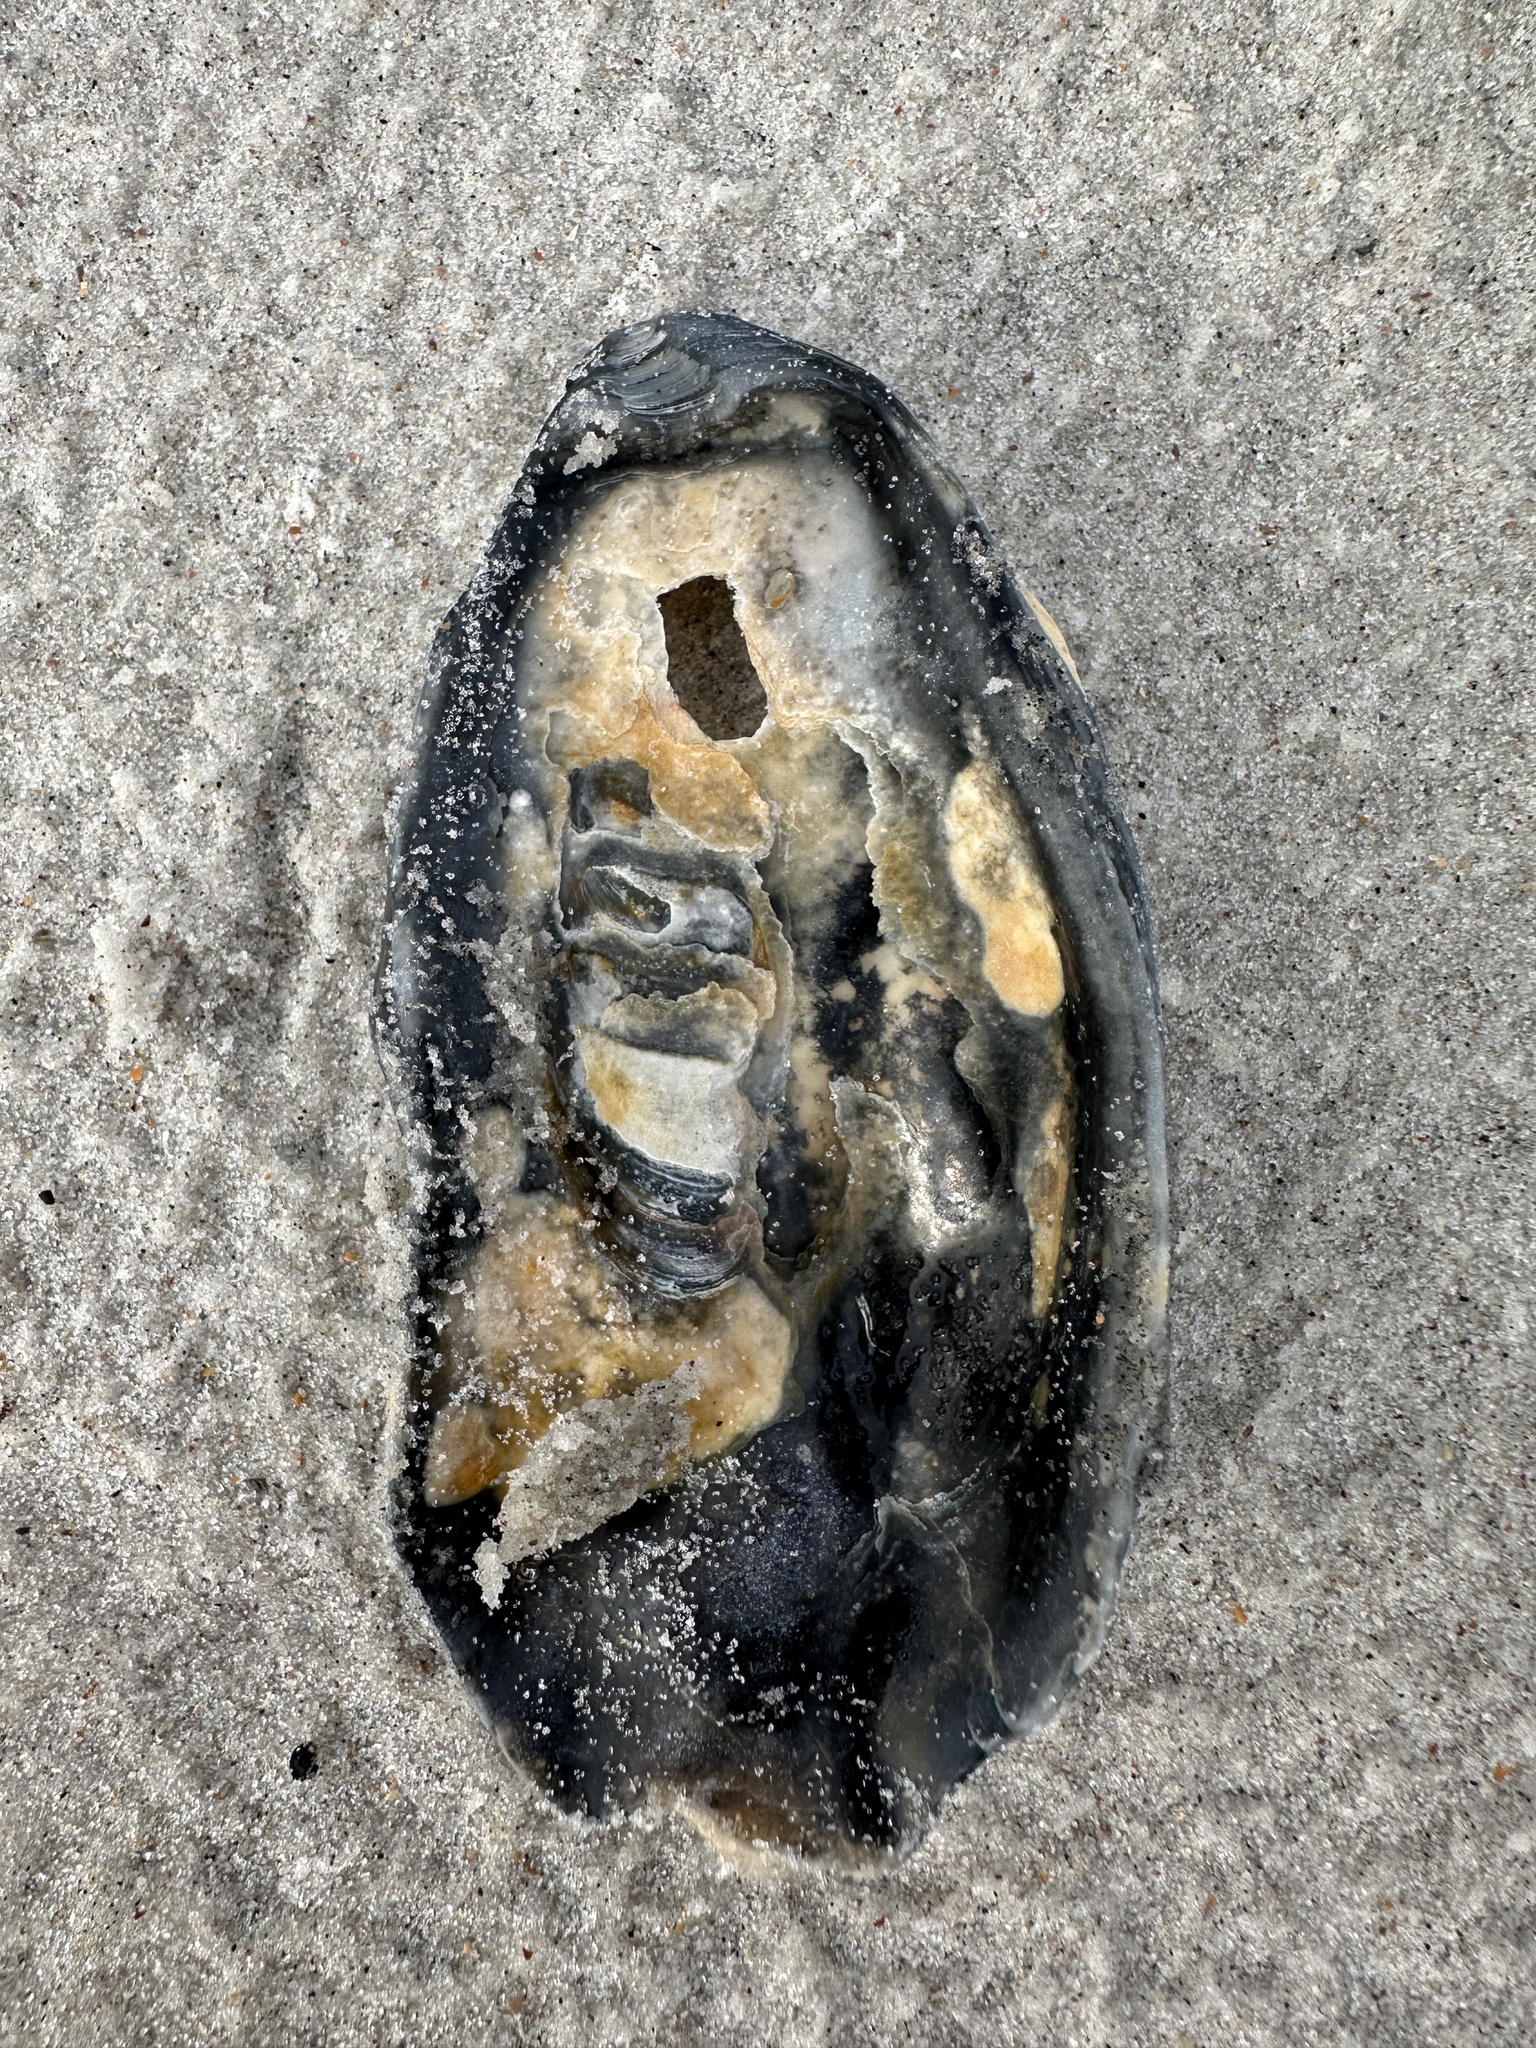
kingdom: Animalia
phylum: Mollusca
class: Bivalvia
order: Ostreida
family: Ostreidae
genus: Crassostrea
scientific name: Crassostrea virginica
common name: American oyster
